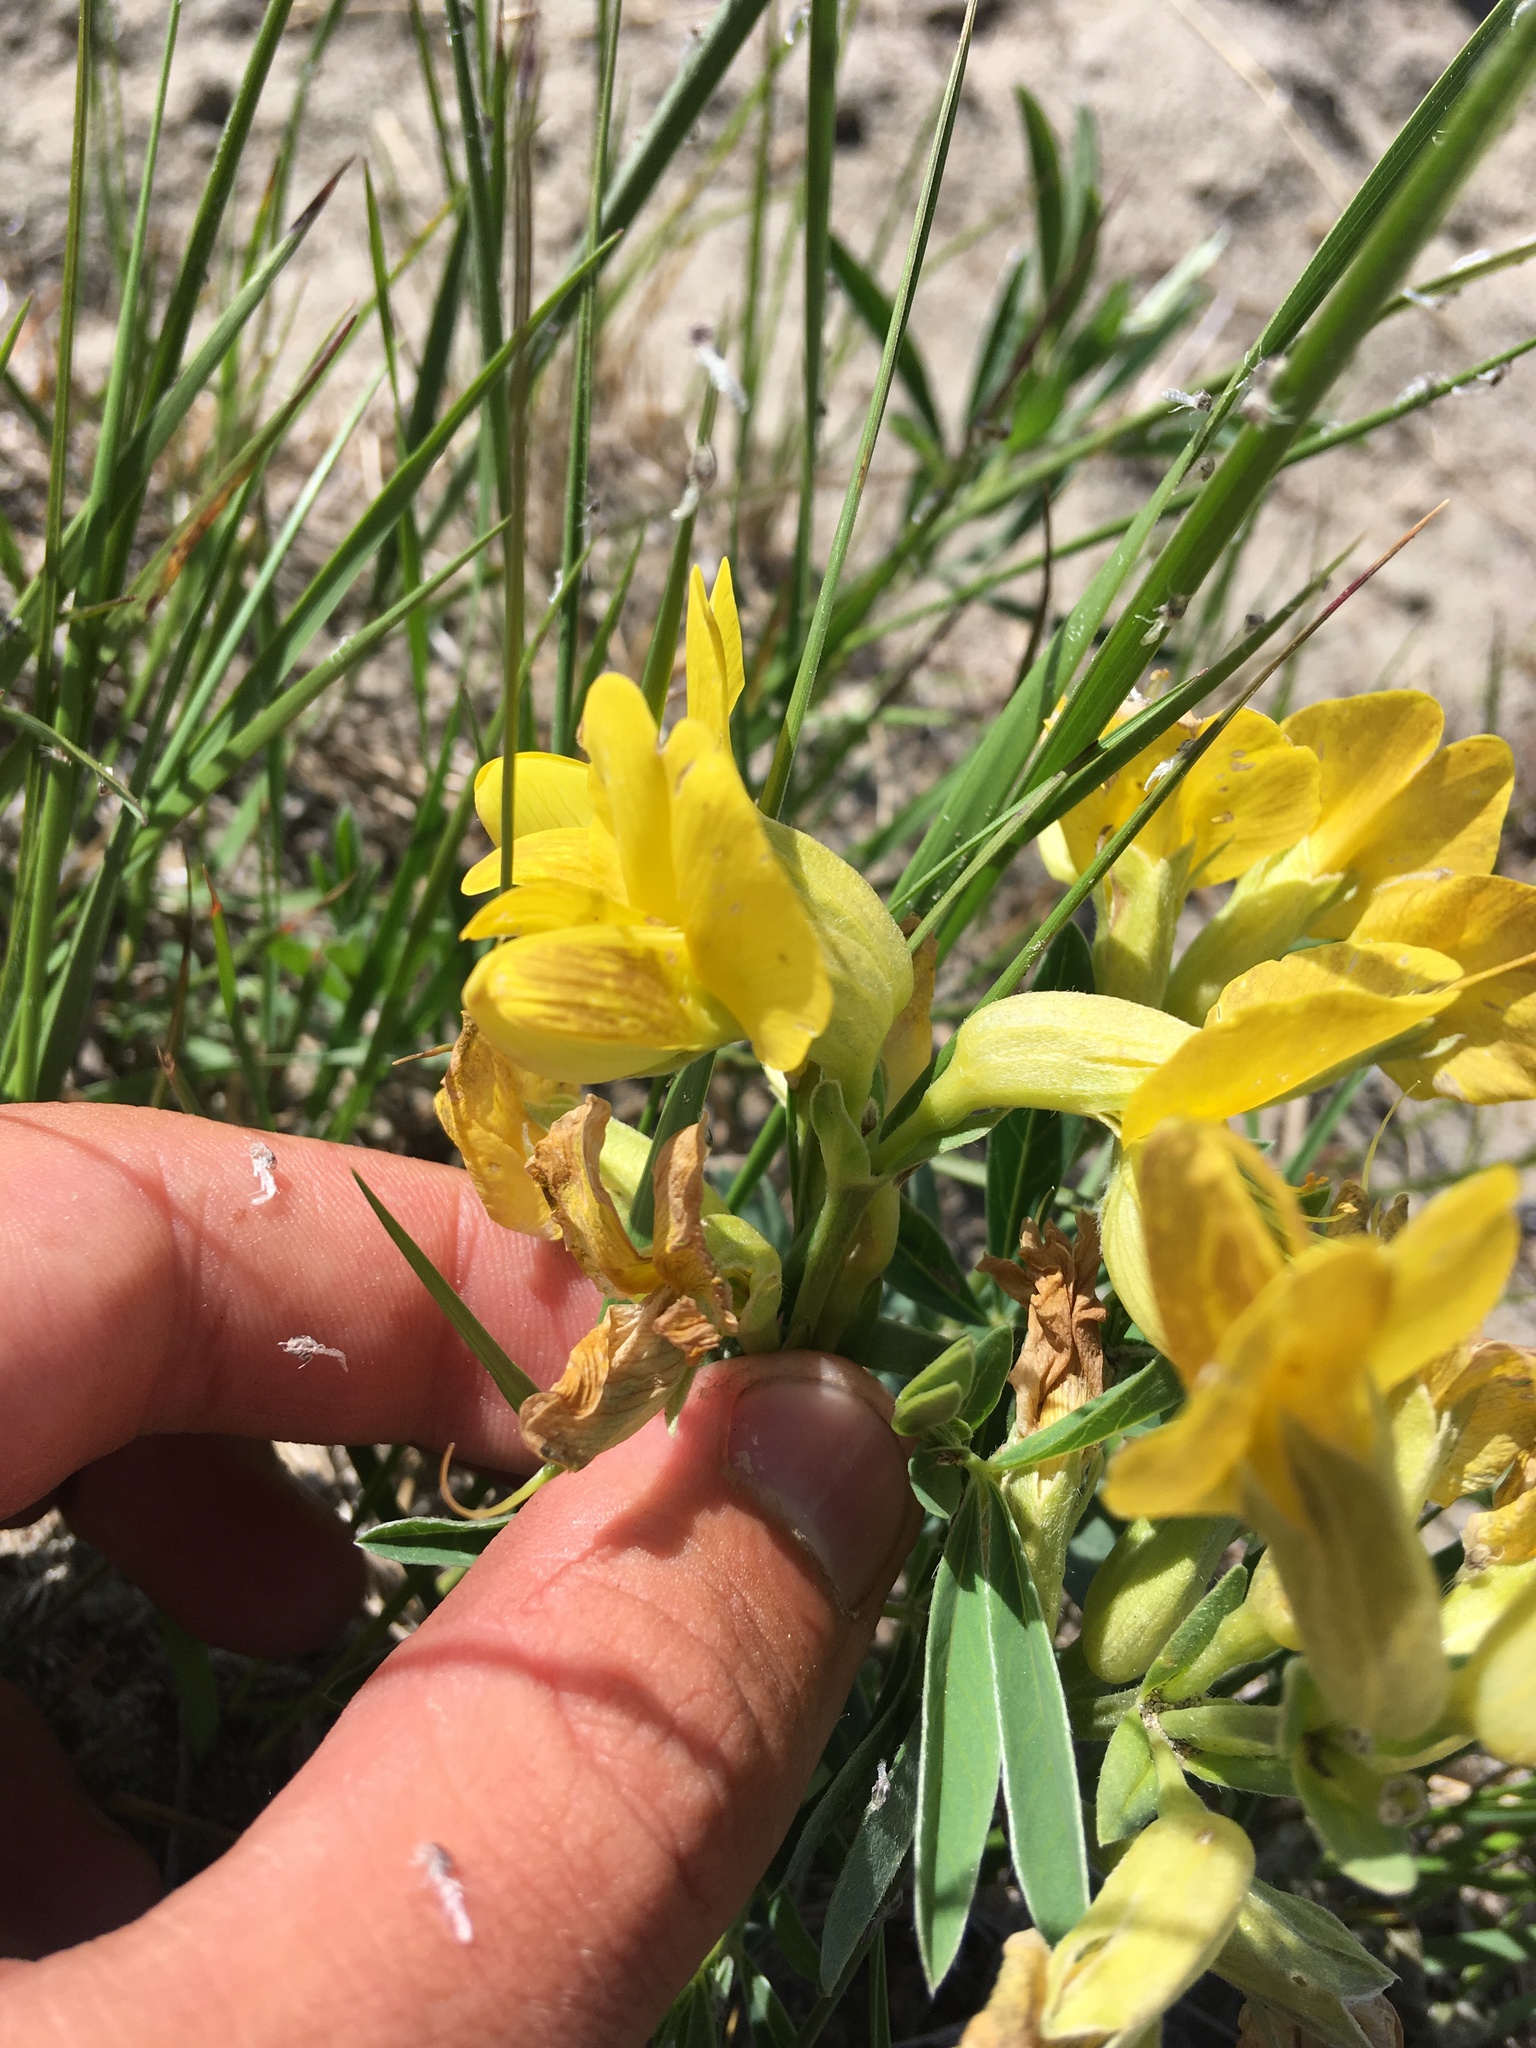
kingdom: Plantae
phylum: Tracheophyta
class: Magnoliopsida
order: Fabales
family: Fabaceae
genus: Thermopsis
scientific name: Thermopsis lanceolata
